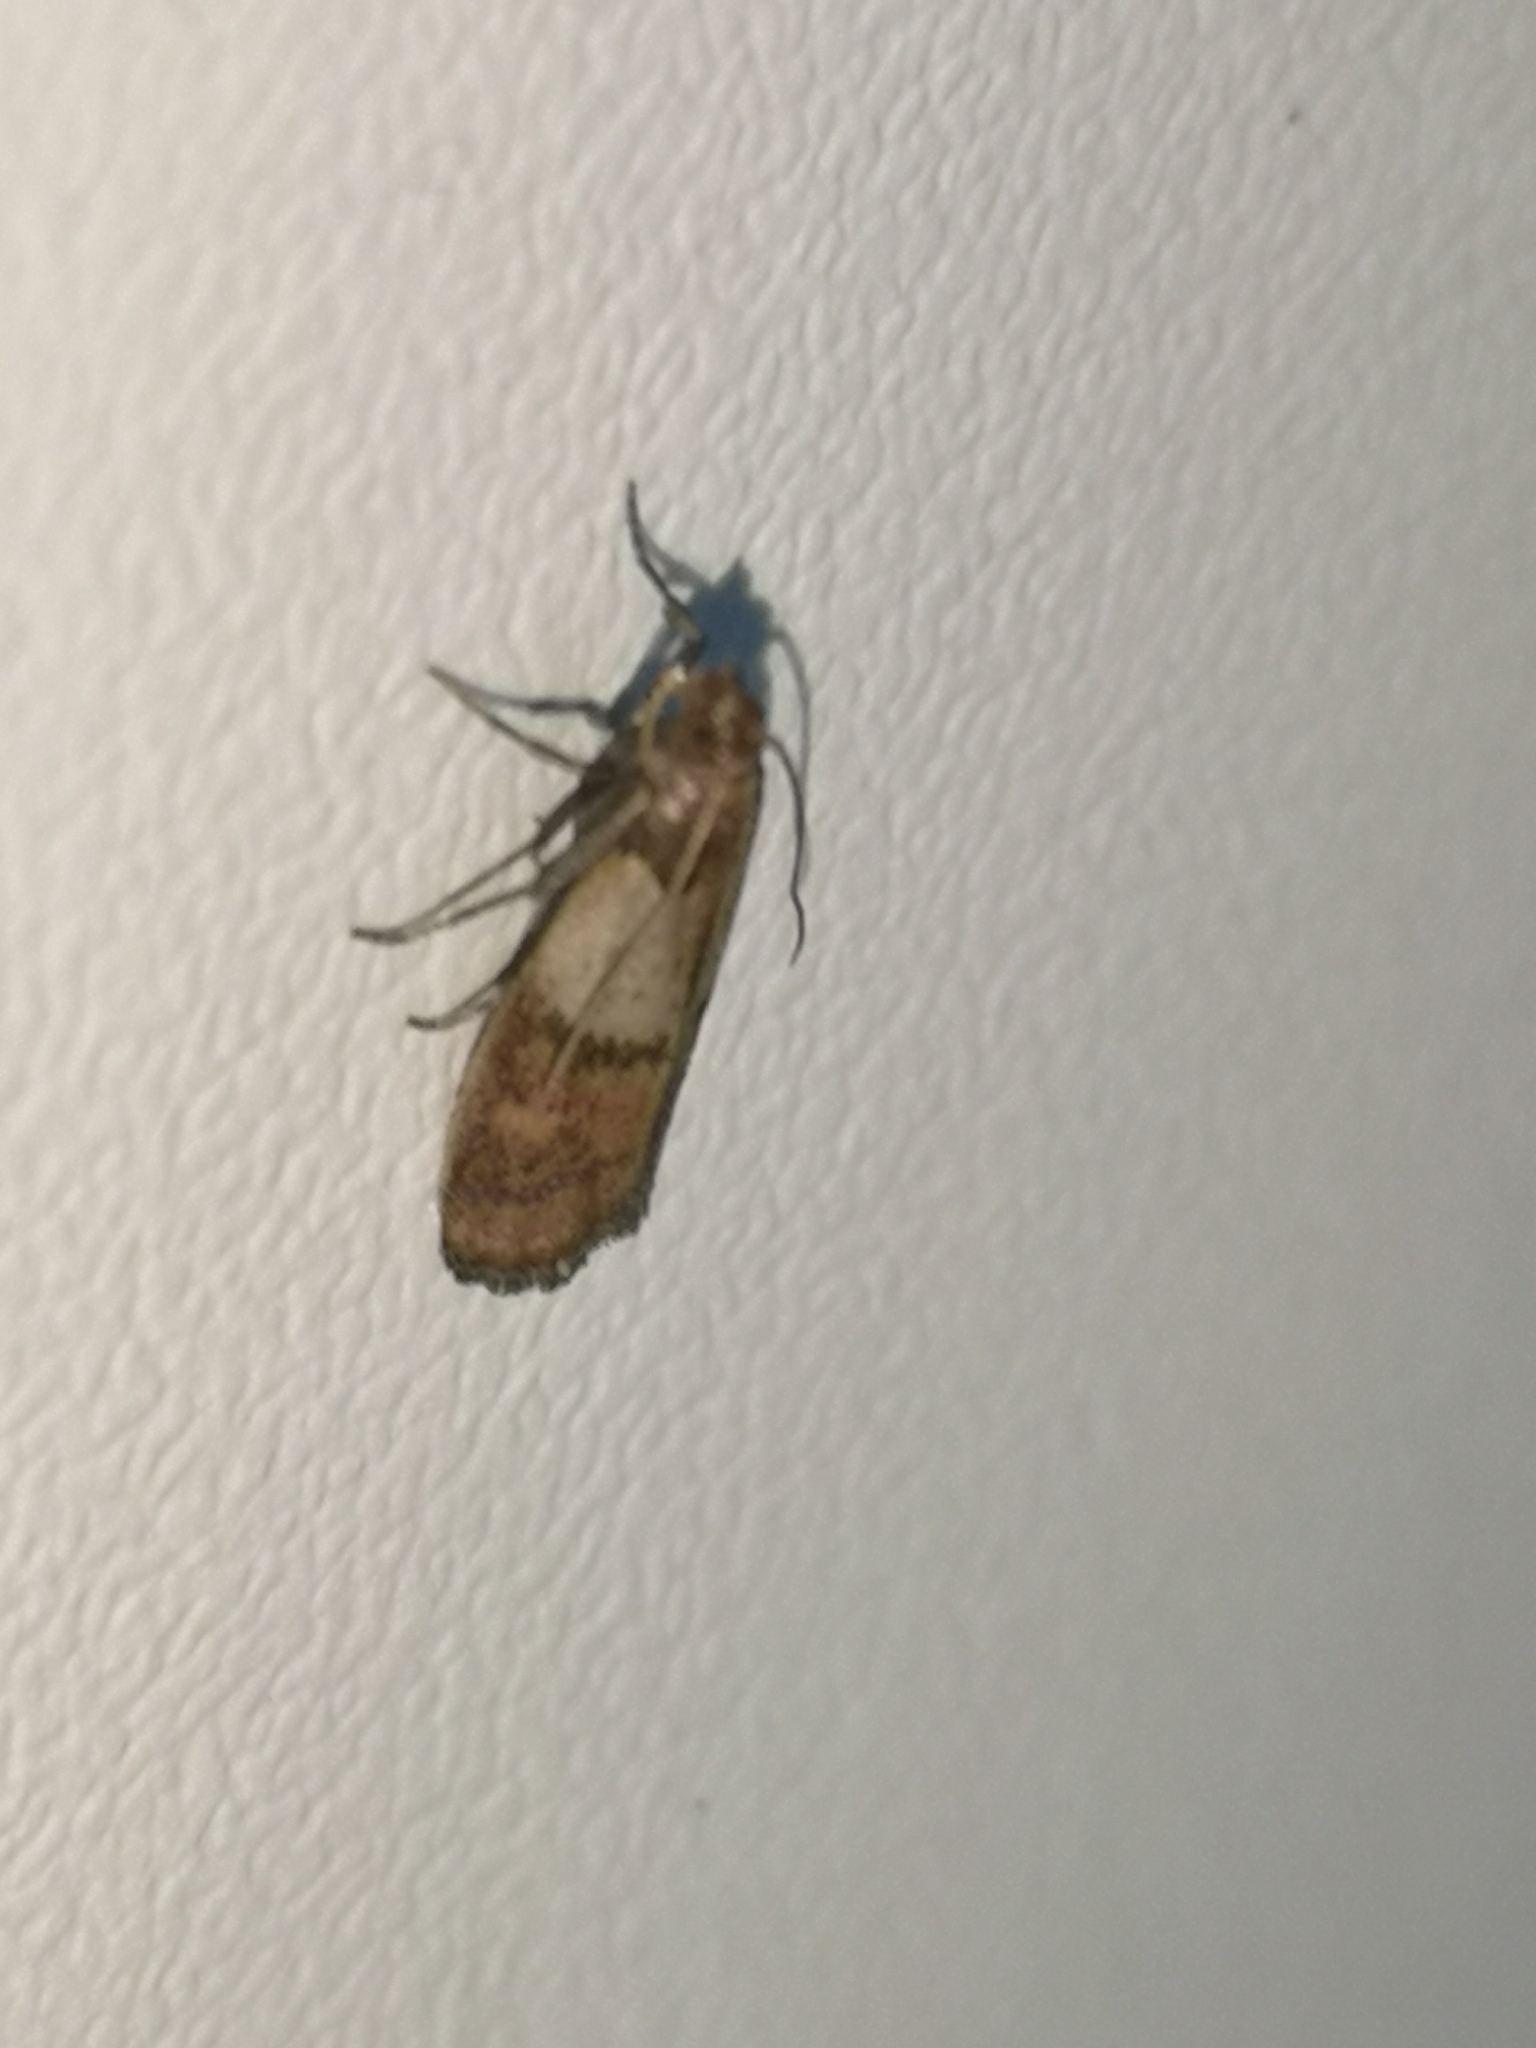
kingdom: Animalia
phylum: Arthropoda
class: Insecta
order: Lepidoptera
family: Pyralidae
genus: Plodia
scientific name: Plodia interpunctella
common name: Indian meal moth
